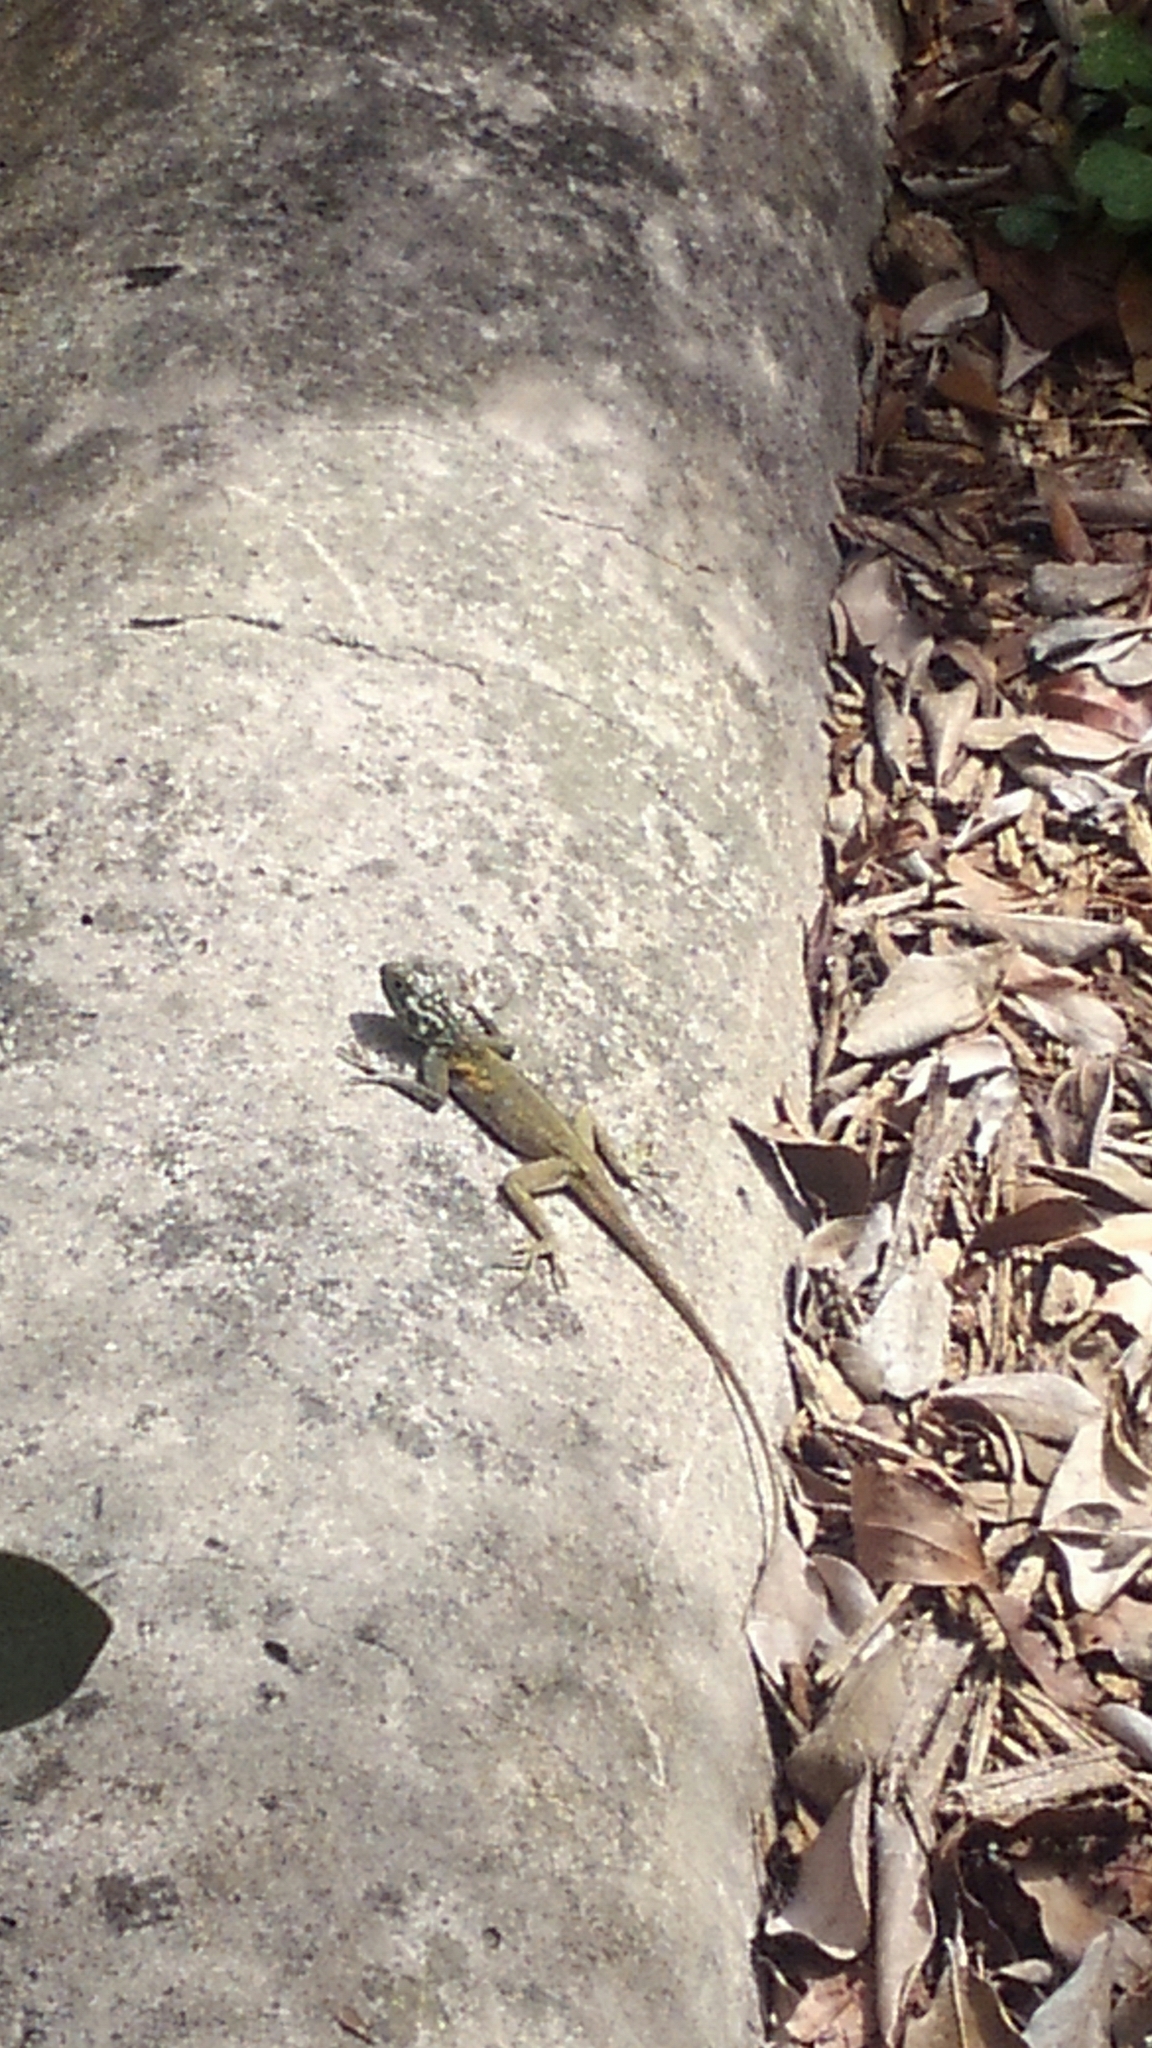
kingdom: Animalia
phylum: Chordata
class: Squamata
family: Agamidae
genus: Agama
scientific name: Agama picticauda
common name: Red-headed agama
